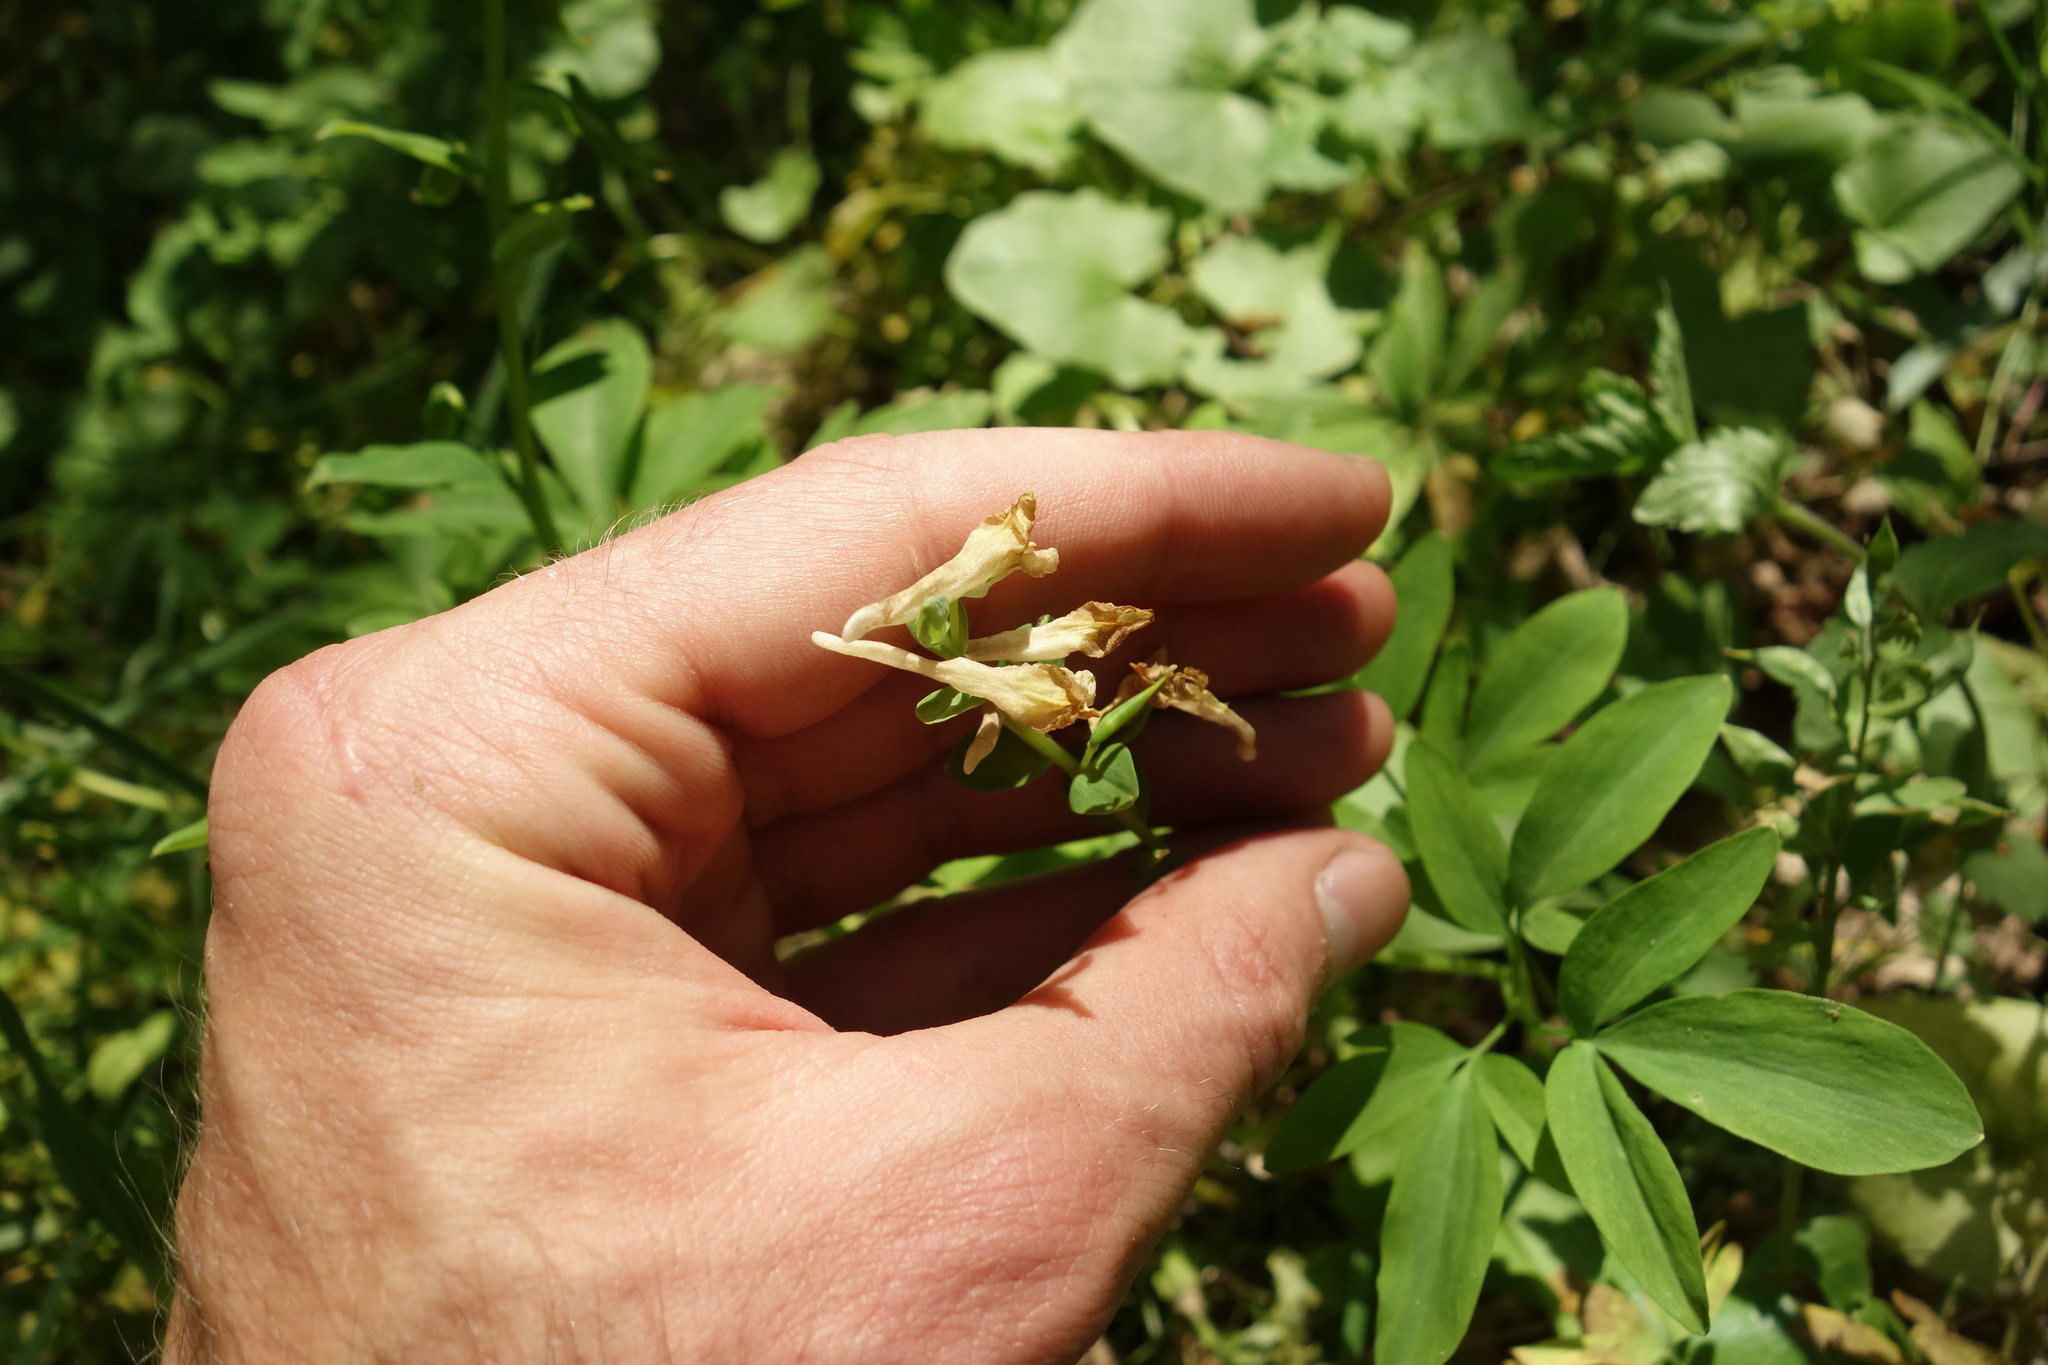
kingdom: Plantae
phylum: Tracheophyta
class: Magnoliopsida
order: Ranunculales
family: Papaveraceae
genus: Corydalis
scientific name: Corydalis cava
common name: Hollowroot
